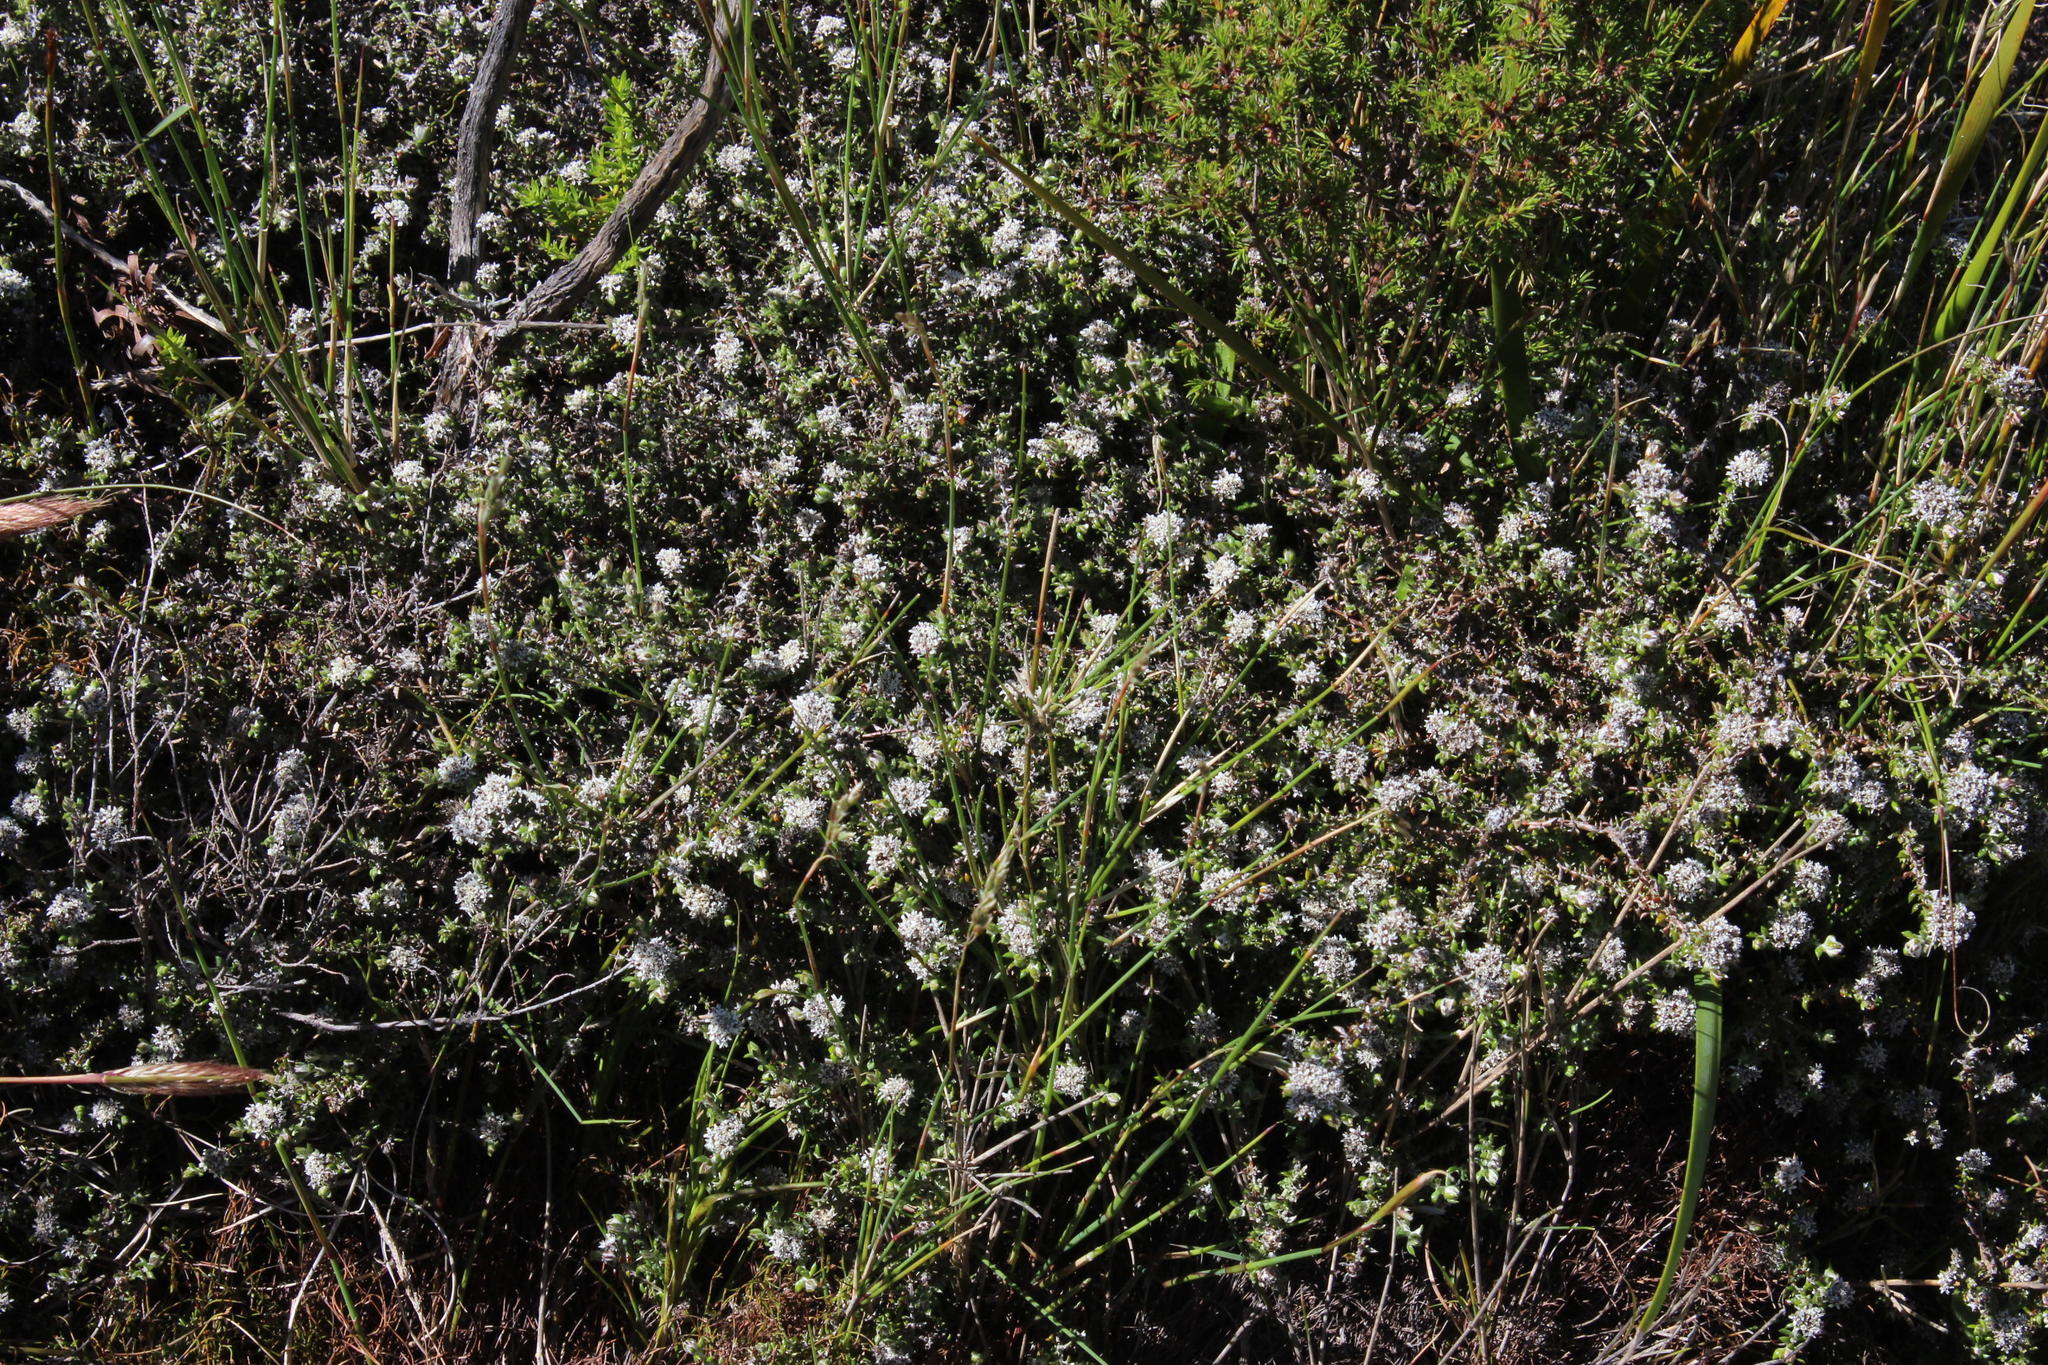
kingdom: Plantae
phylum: Tracheophyta
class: Magnoliopsida
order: Asterales
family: Asteraceae
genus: Metalasia
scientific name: Metalasia divergens
